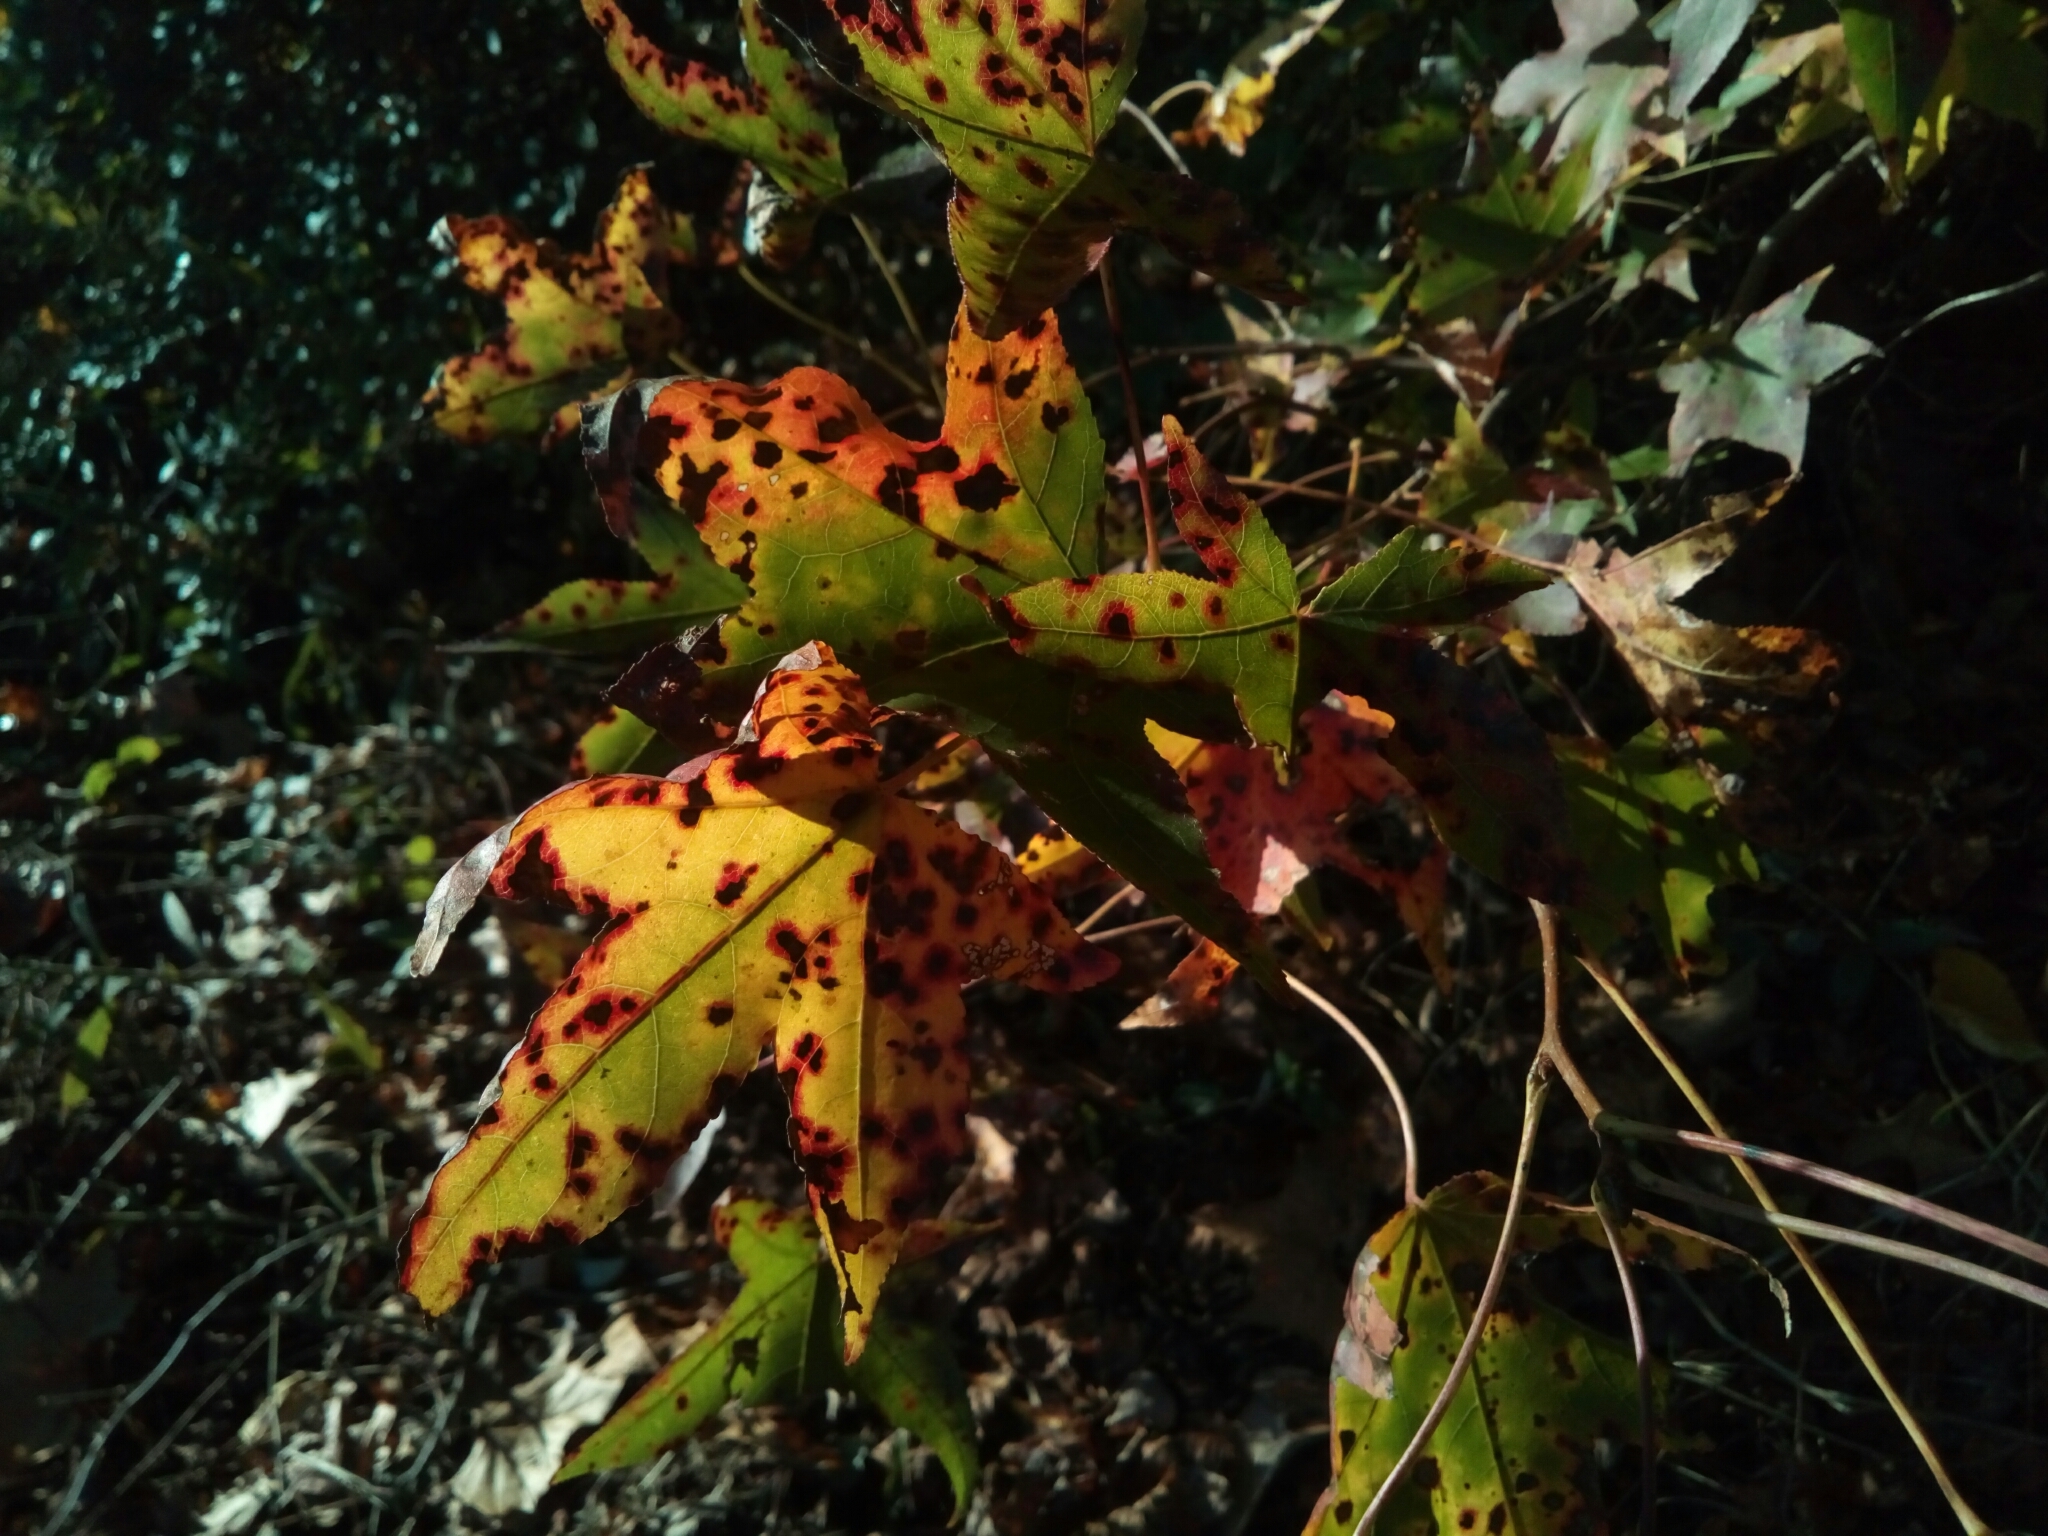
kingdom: Plantae
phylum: Tracheophyta
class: Magnoliopsida
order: Saxifragales
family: Altingiaceae
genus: Liquidambar
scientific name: Liquidambar styraciflua
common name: Sweet gum
